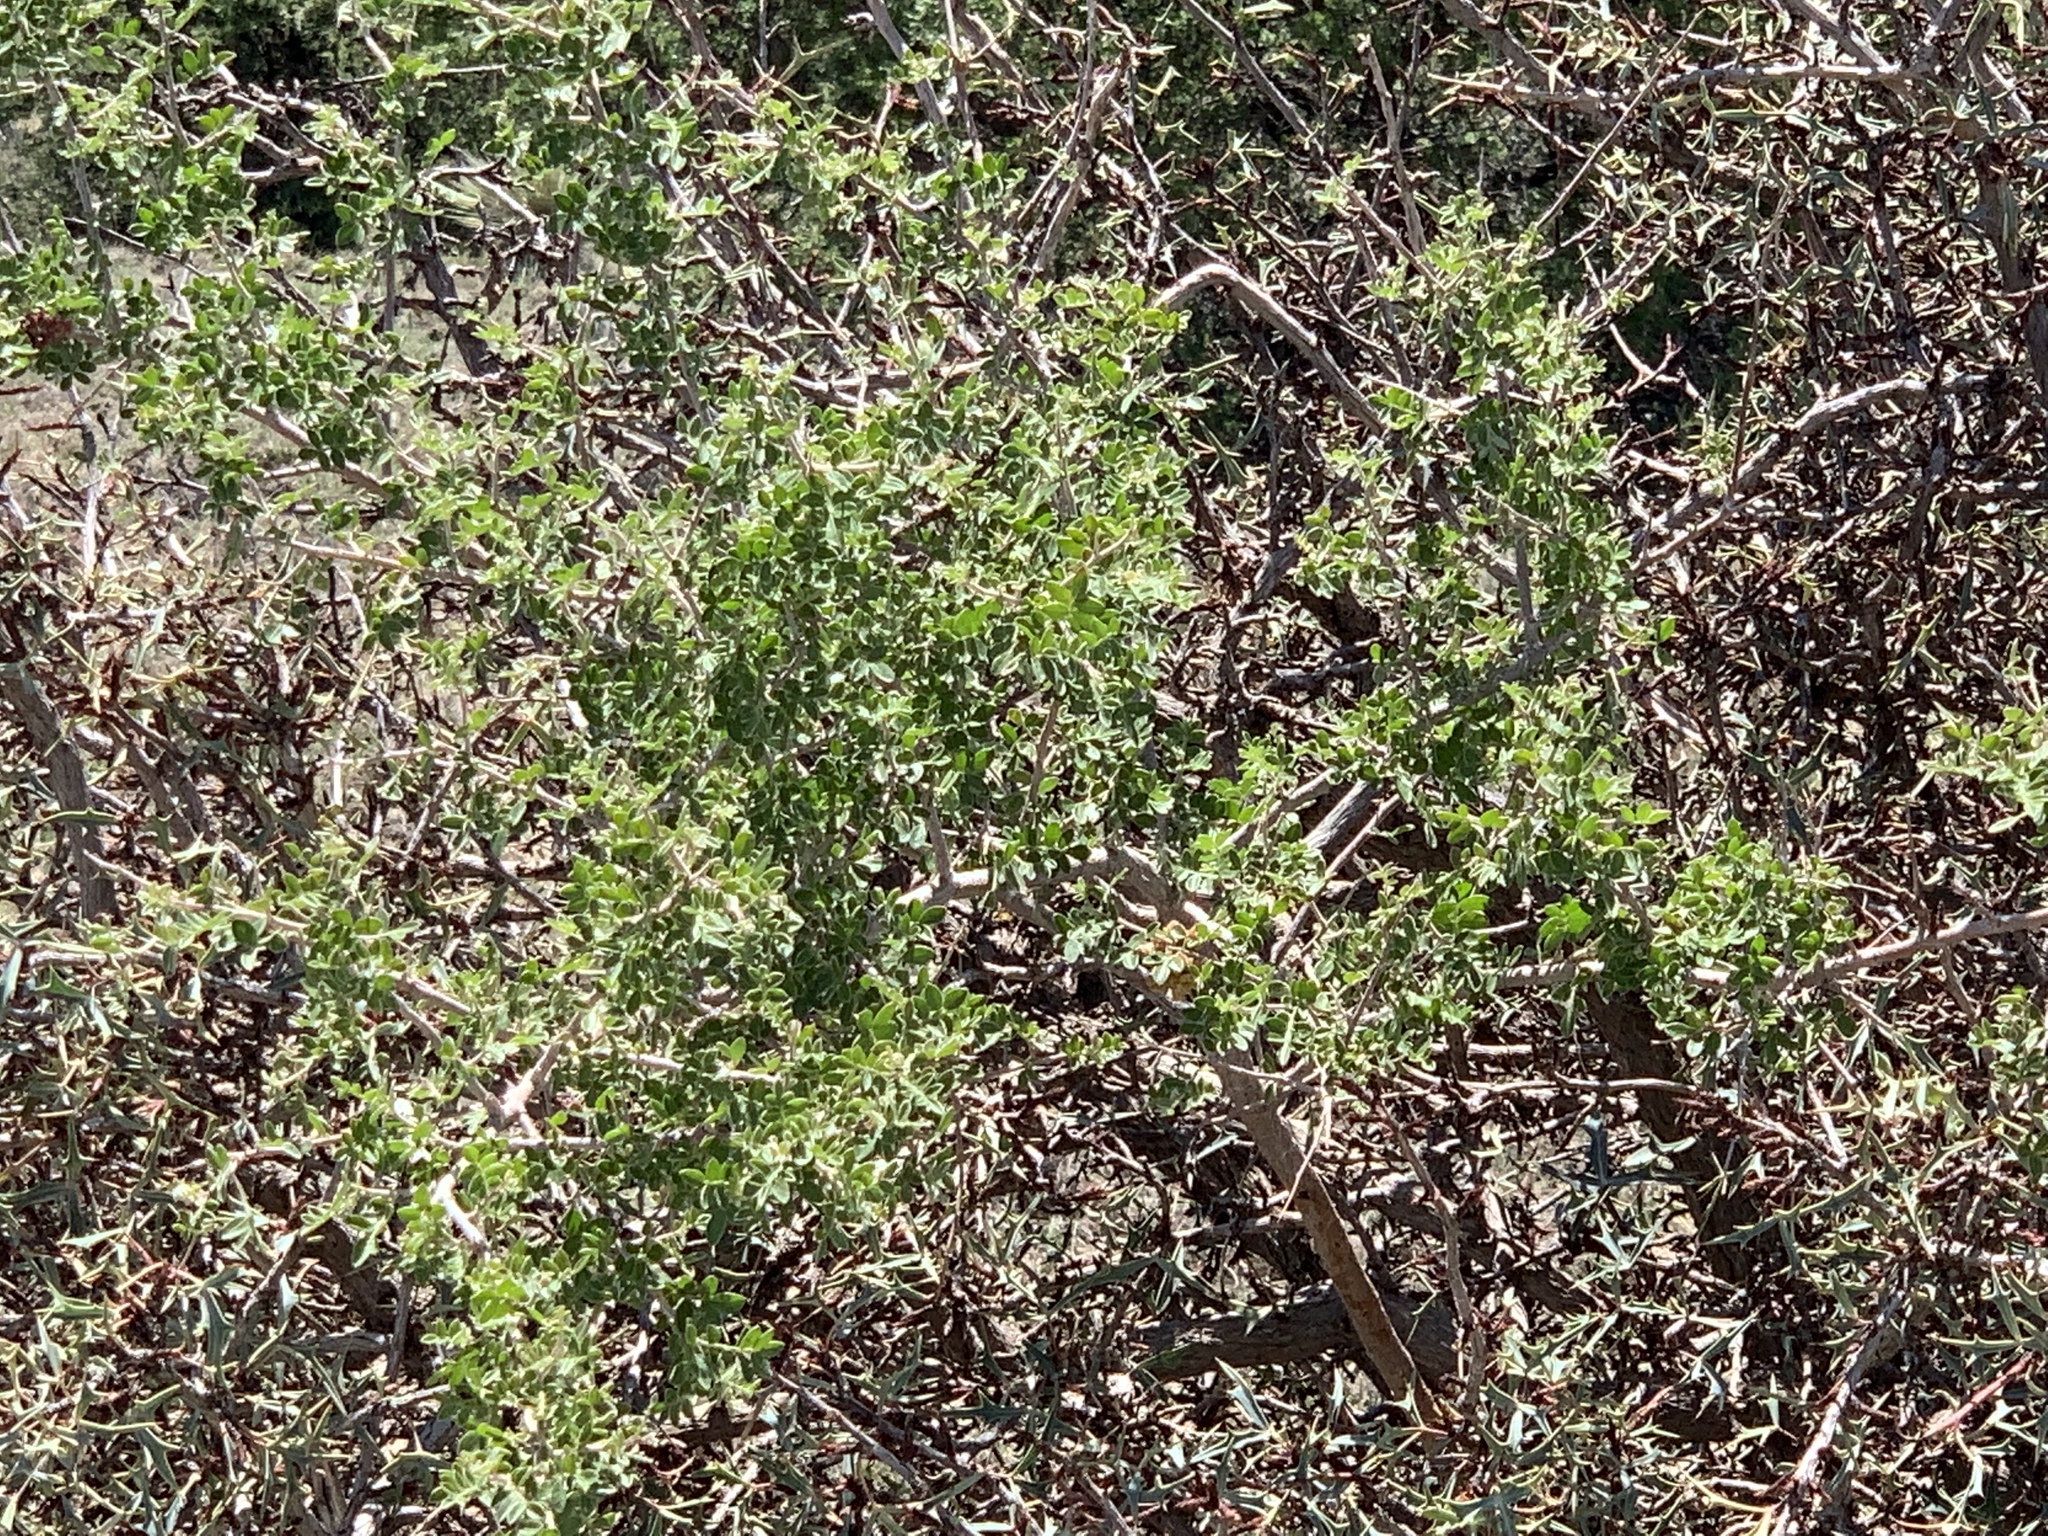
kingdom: Plantae
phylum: Tracheophyta
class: Magnoliopsida
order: Sapindales
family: Anacardiaceae
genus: Rhus
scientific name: Rhus microphylla
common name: Desert sumac
